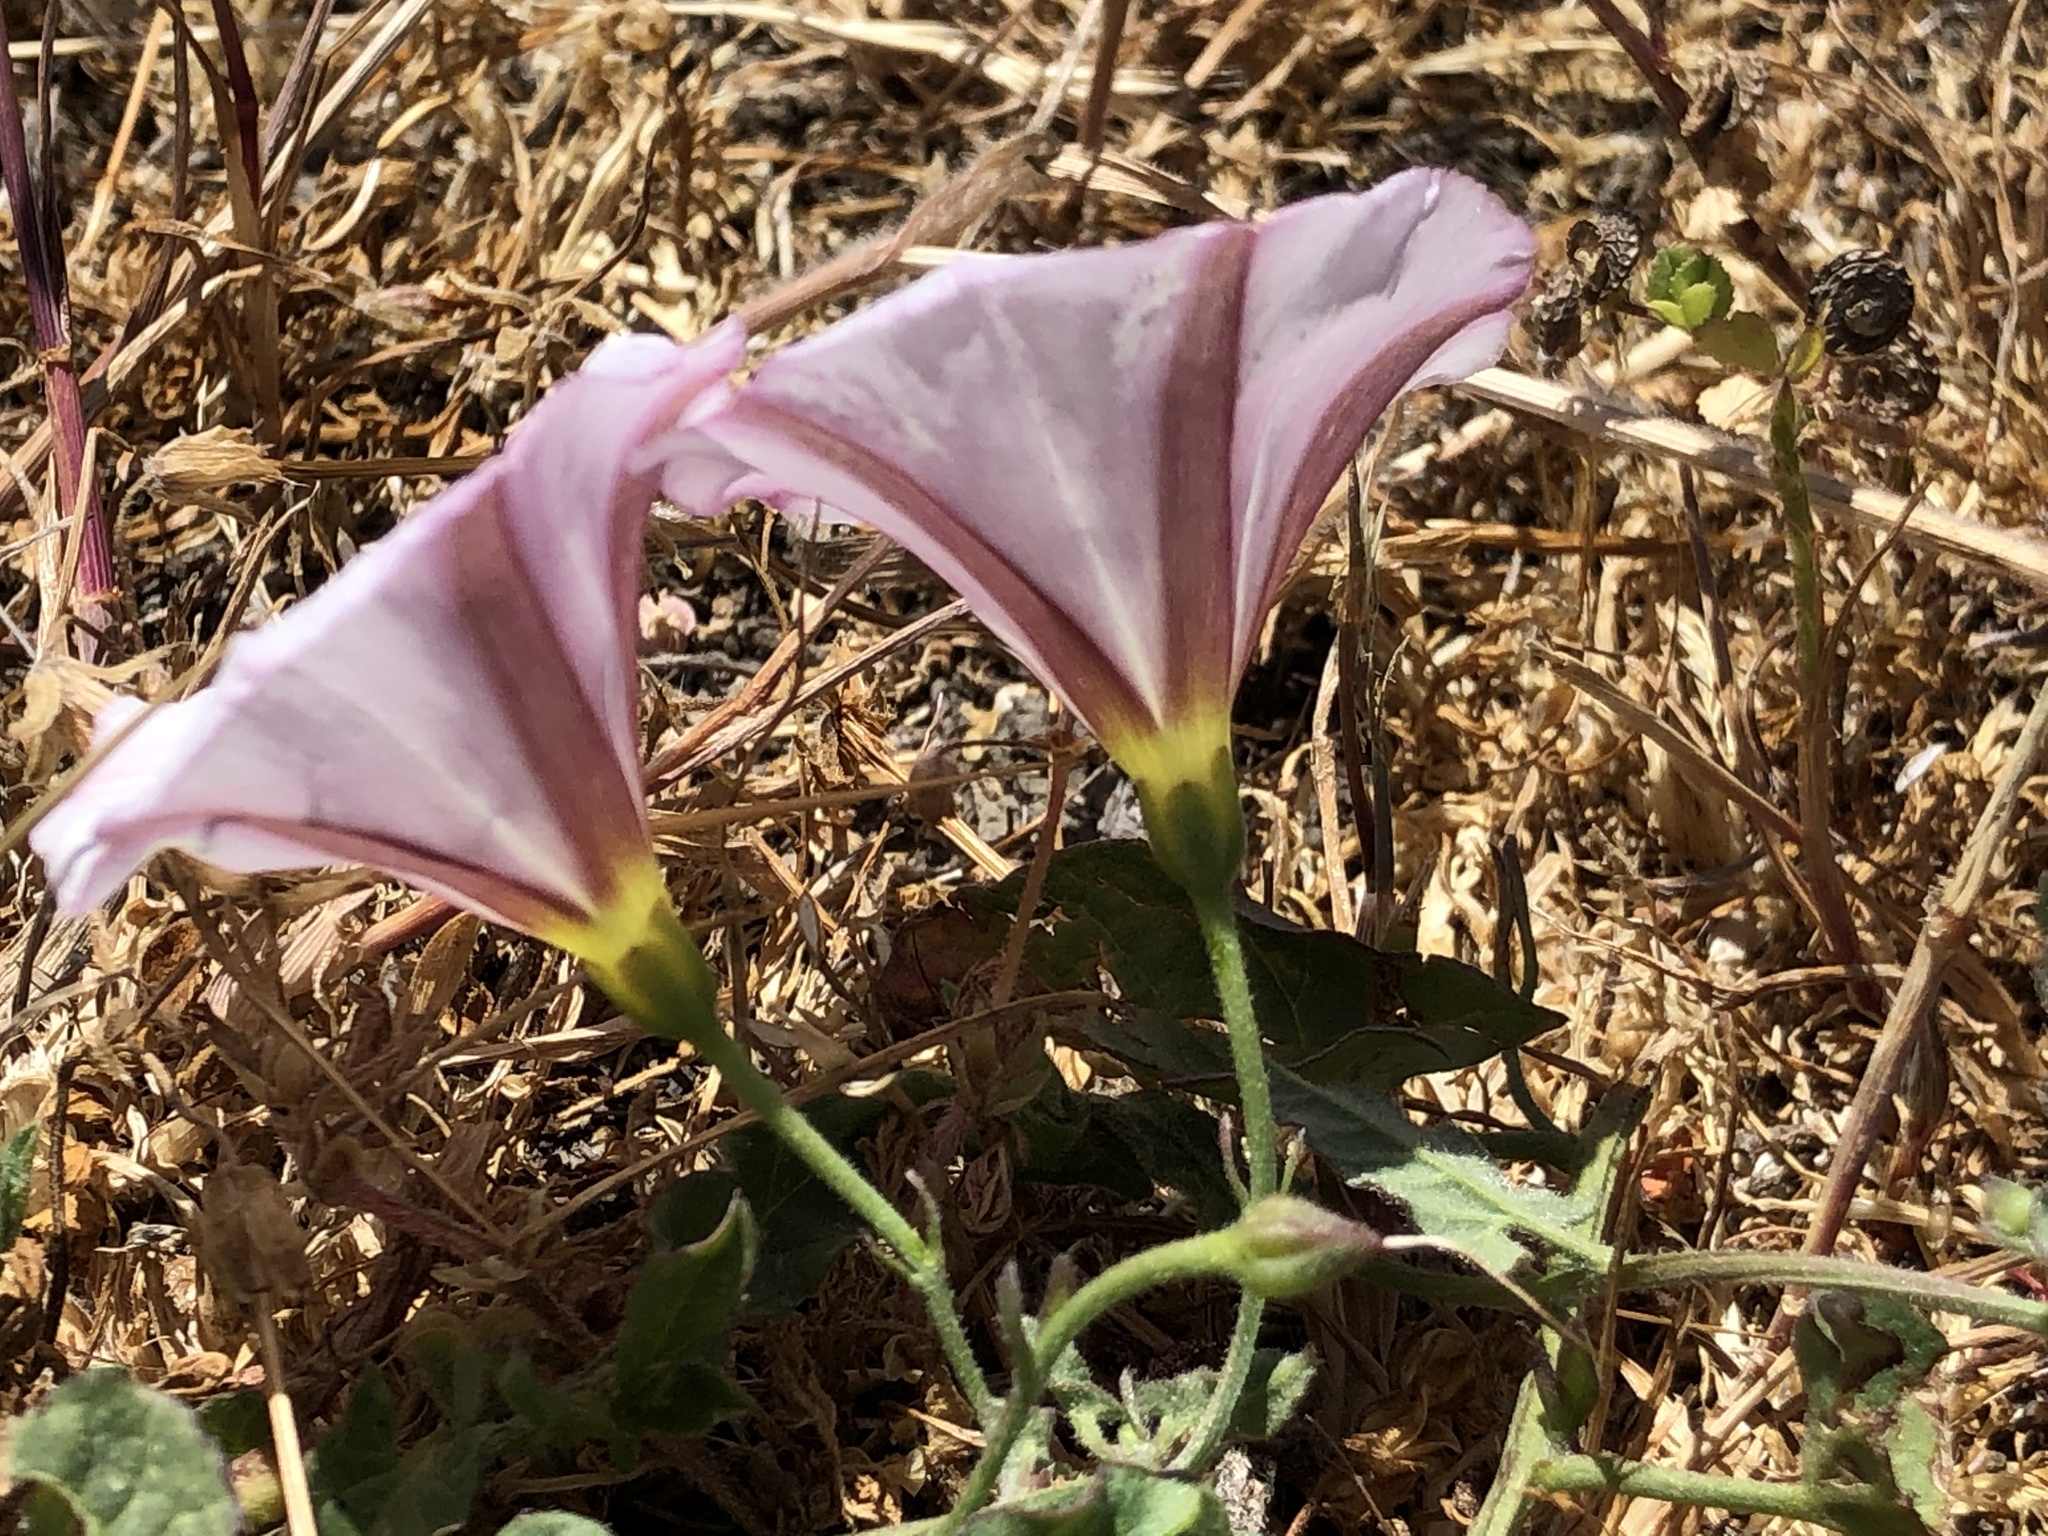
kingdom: Plantae
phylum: Tracheophyta
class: Magnoliopsida
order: Solanales
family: Convolvulaceae
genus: Convolvulus
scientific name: Convolvulus arvensis
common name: Field bindweed
